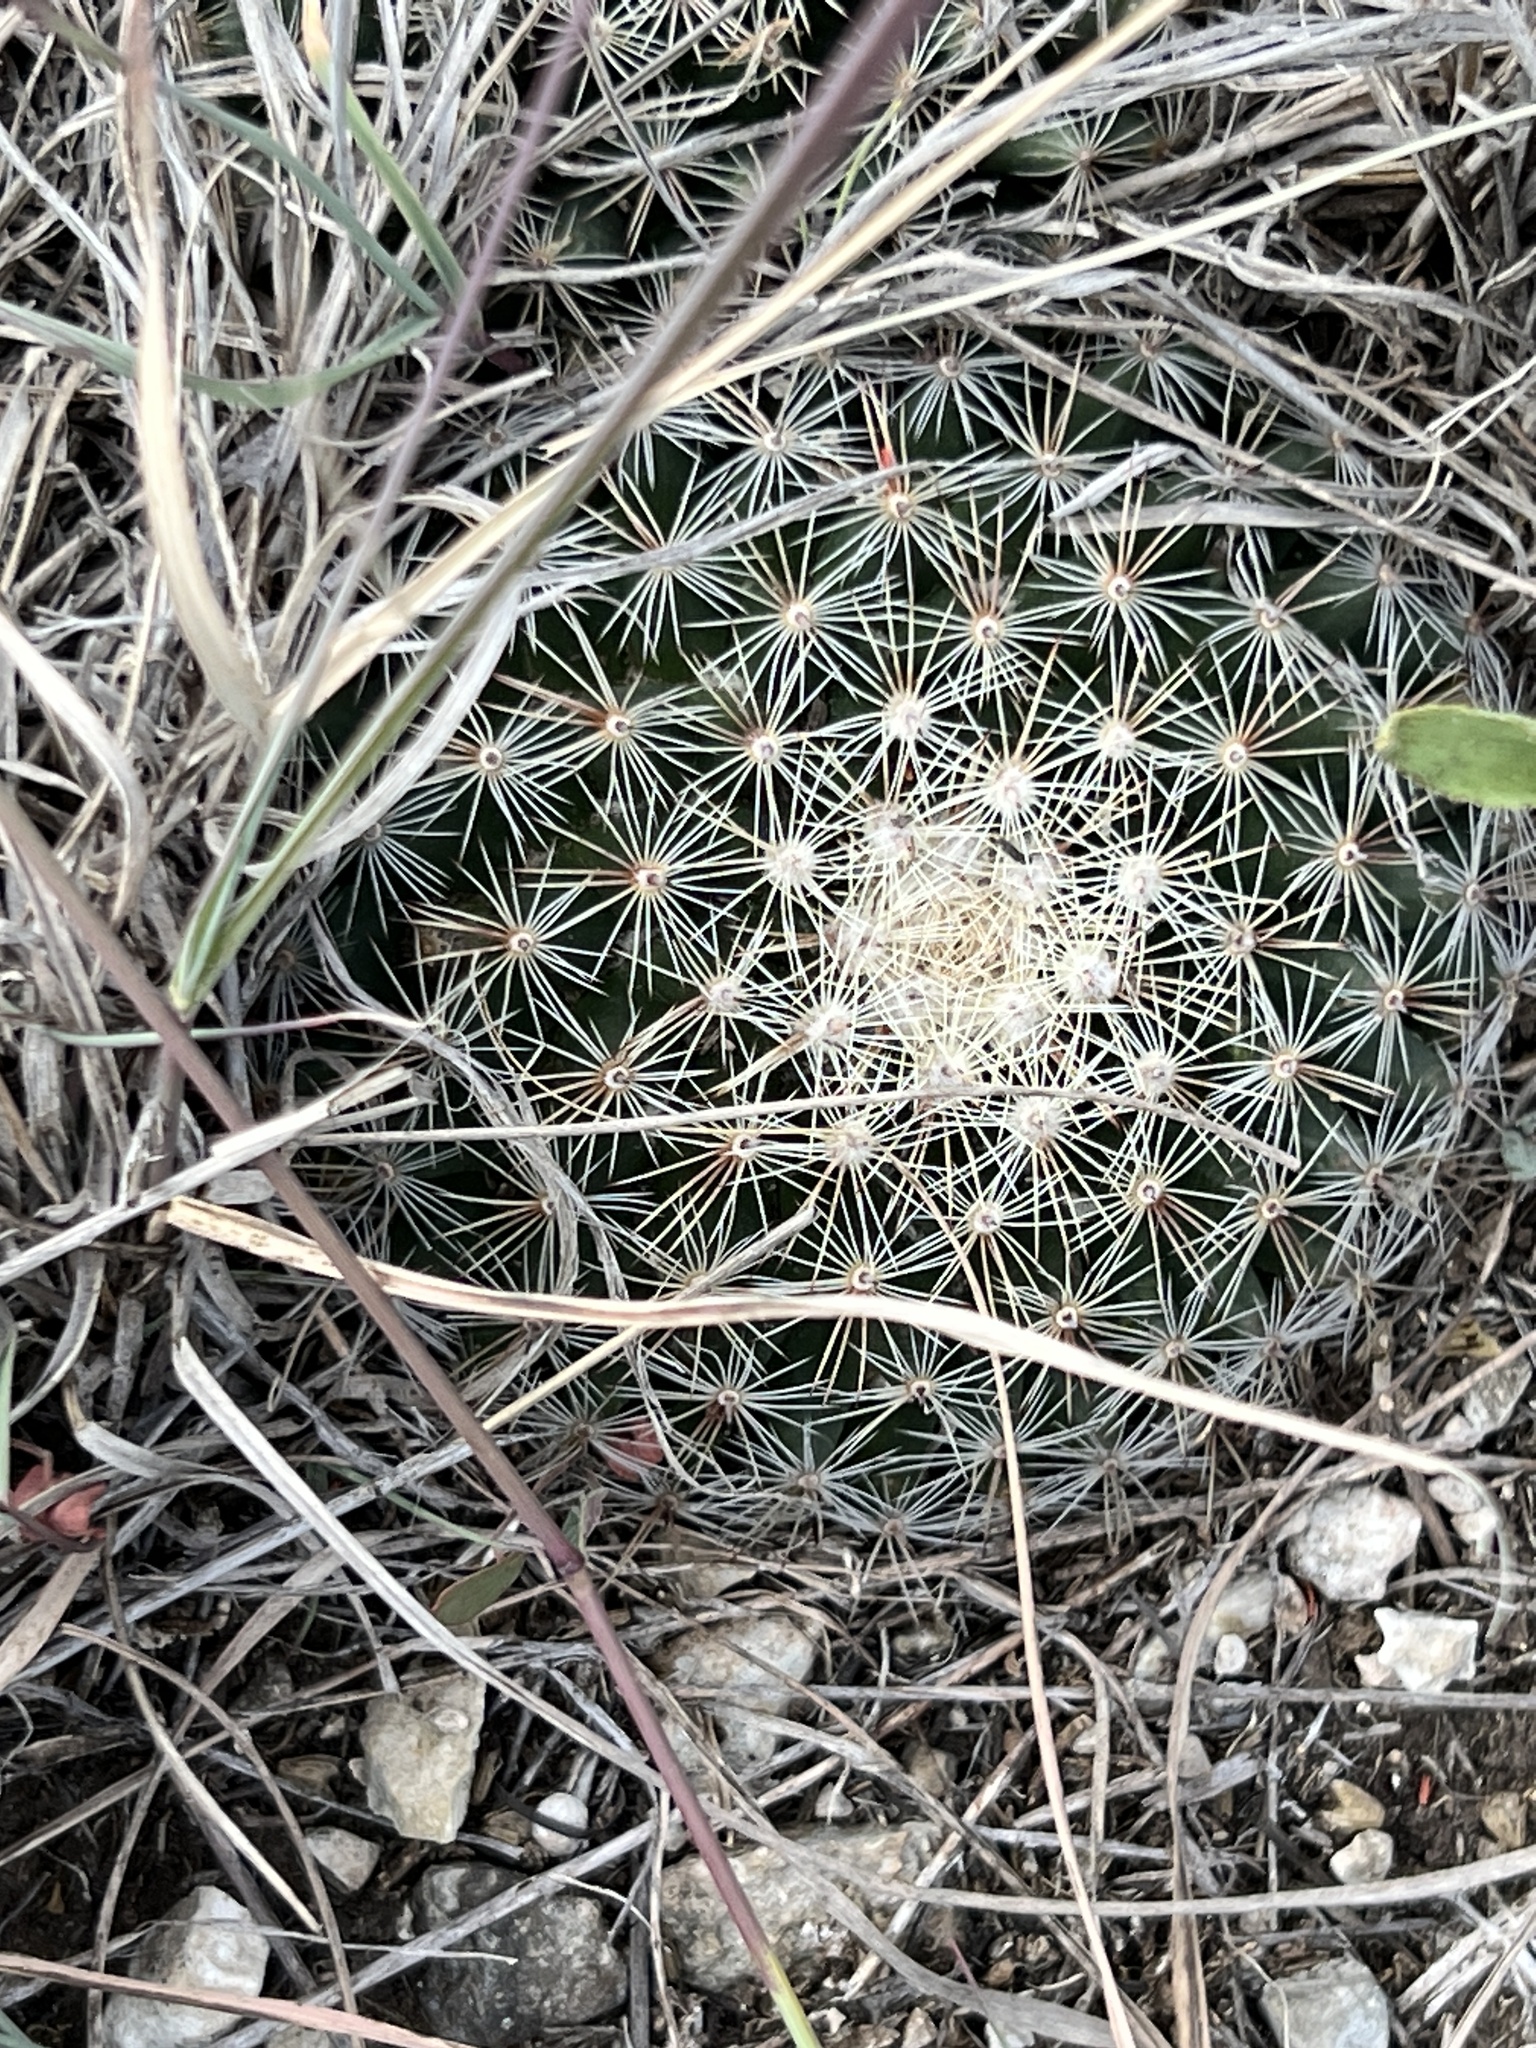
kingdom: Plantae
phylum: Tracheophyta
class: Magnoliopsida
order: Caryophyllales
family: Cactaceae
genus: Mammillaria
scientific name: Mammillaria heyderi
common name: Little nipple cactus
